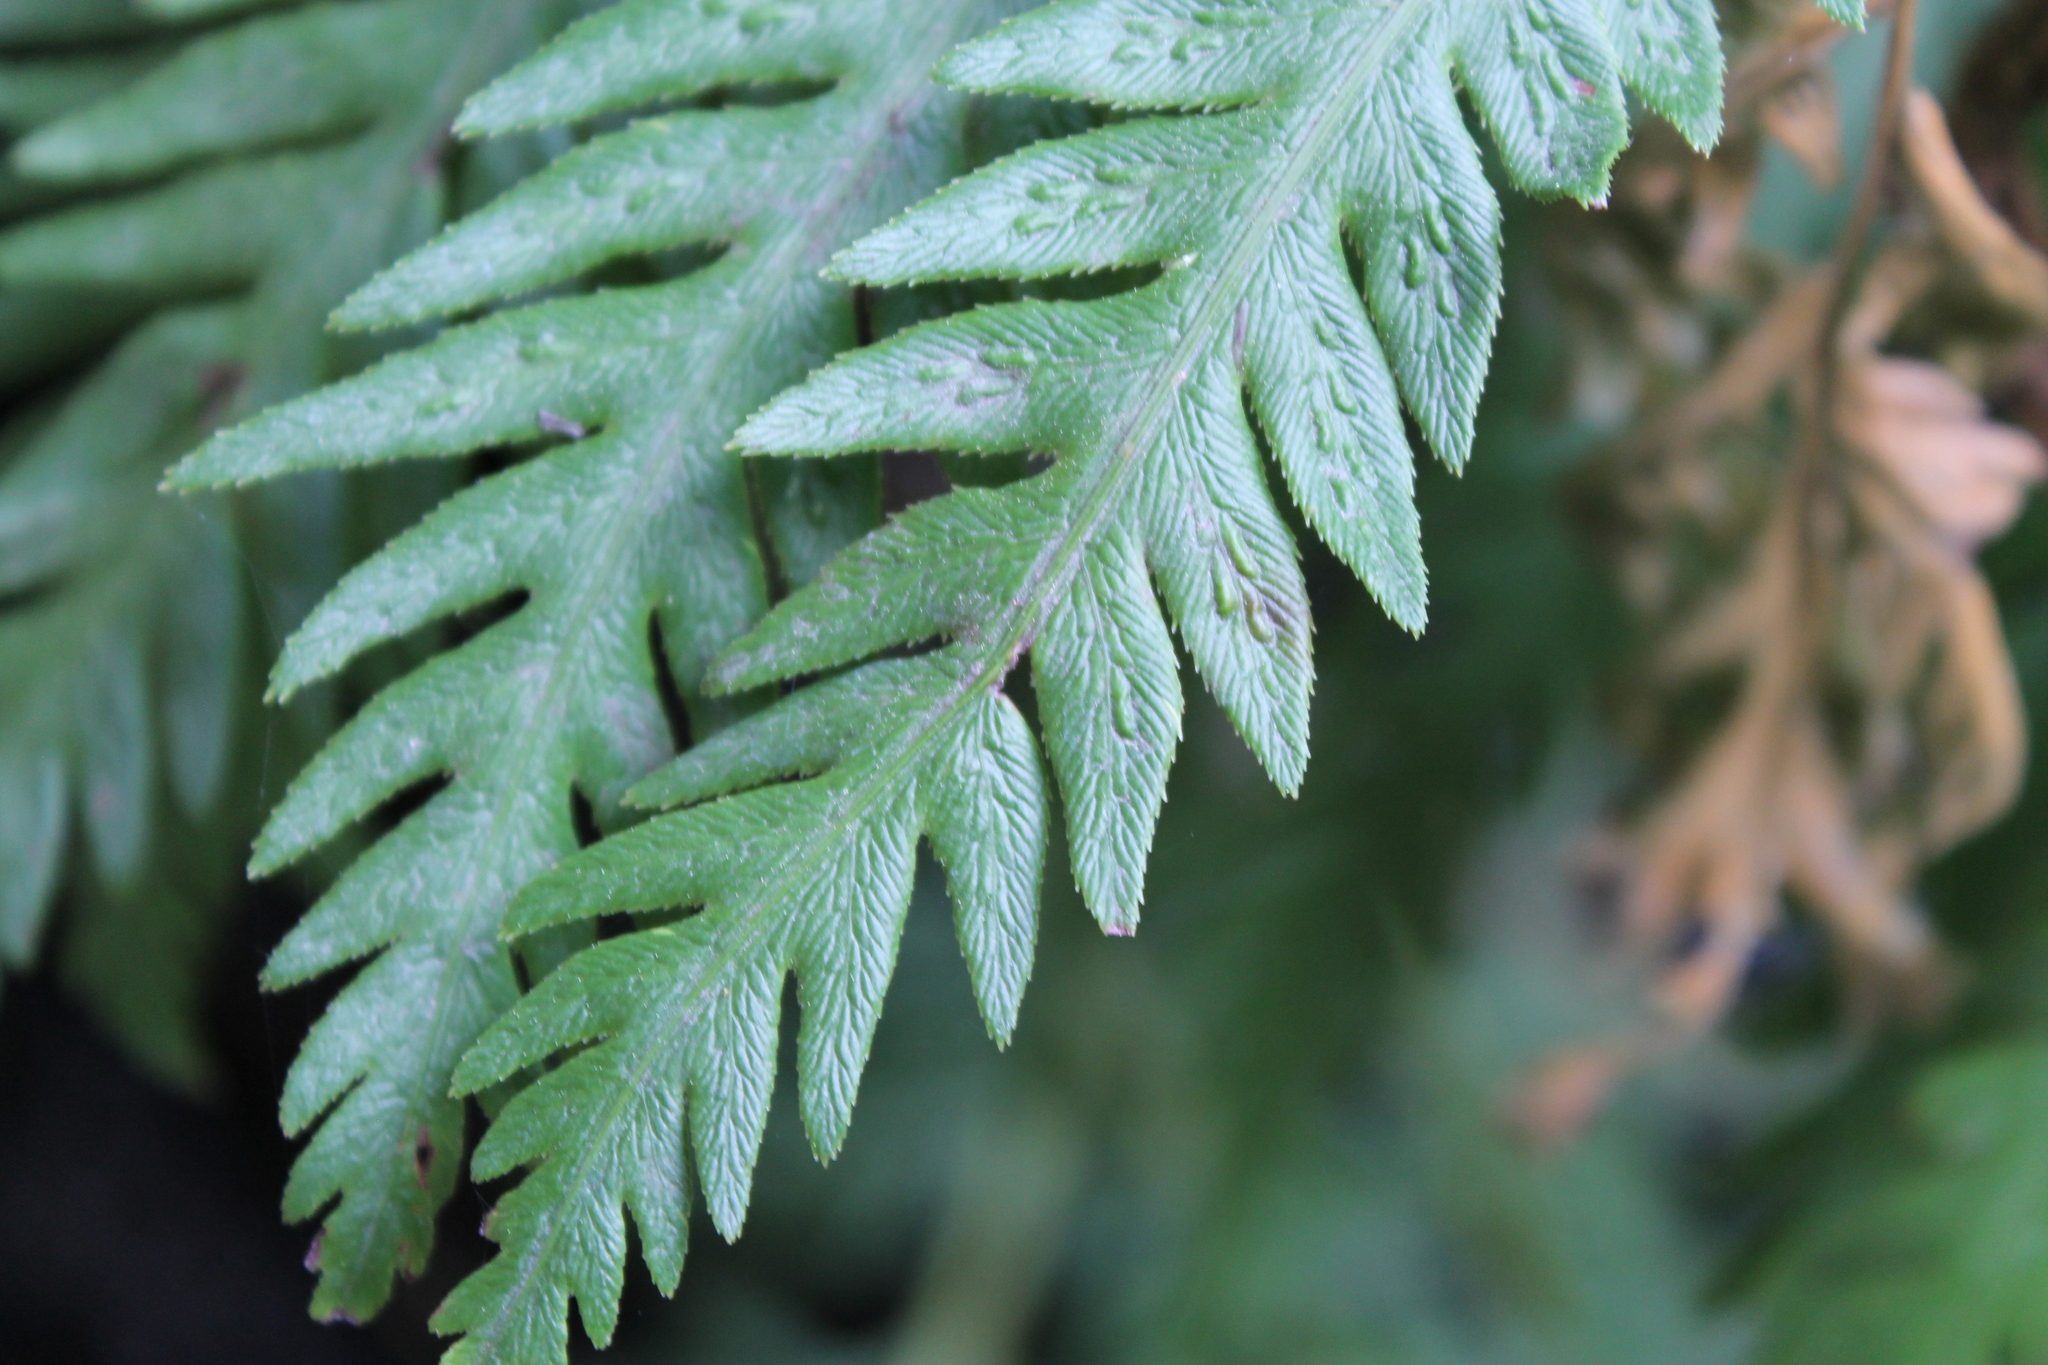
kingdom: Plantae
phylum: Tracheophyta
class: Polypodiopsida
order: Polypodiales
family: Blechnaceae
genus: Woodwardia
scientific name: Woodwardia fimbriata
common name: Giant chain fern
